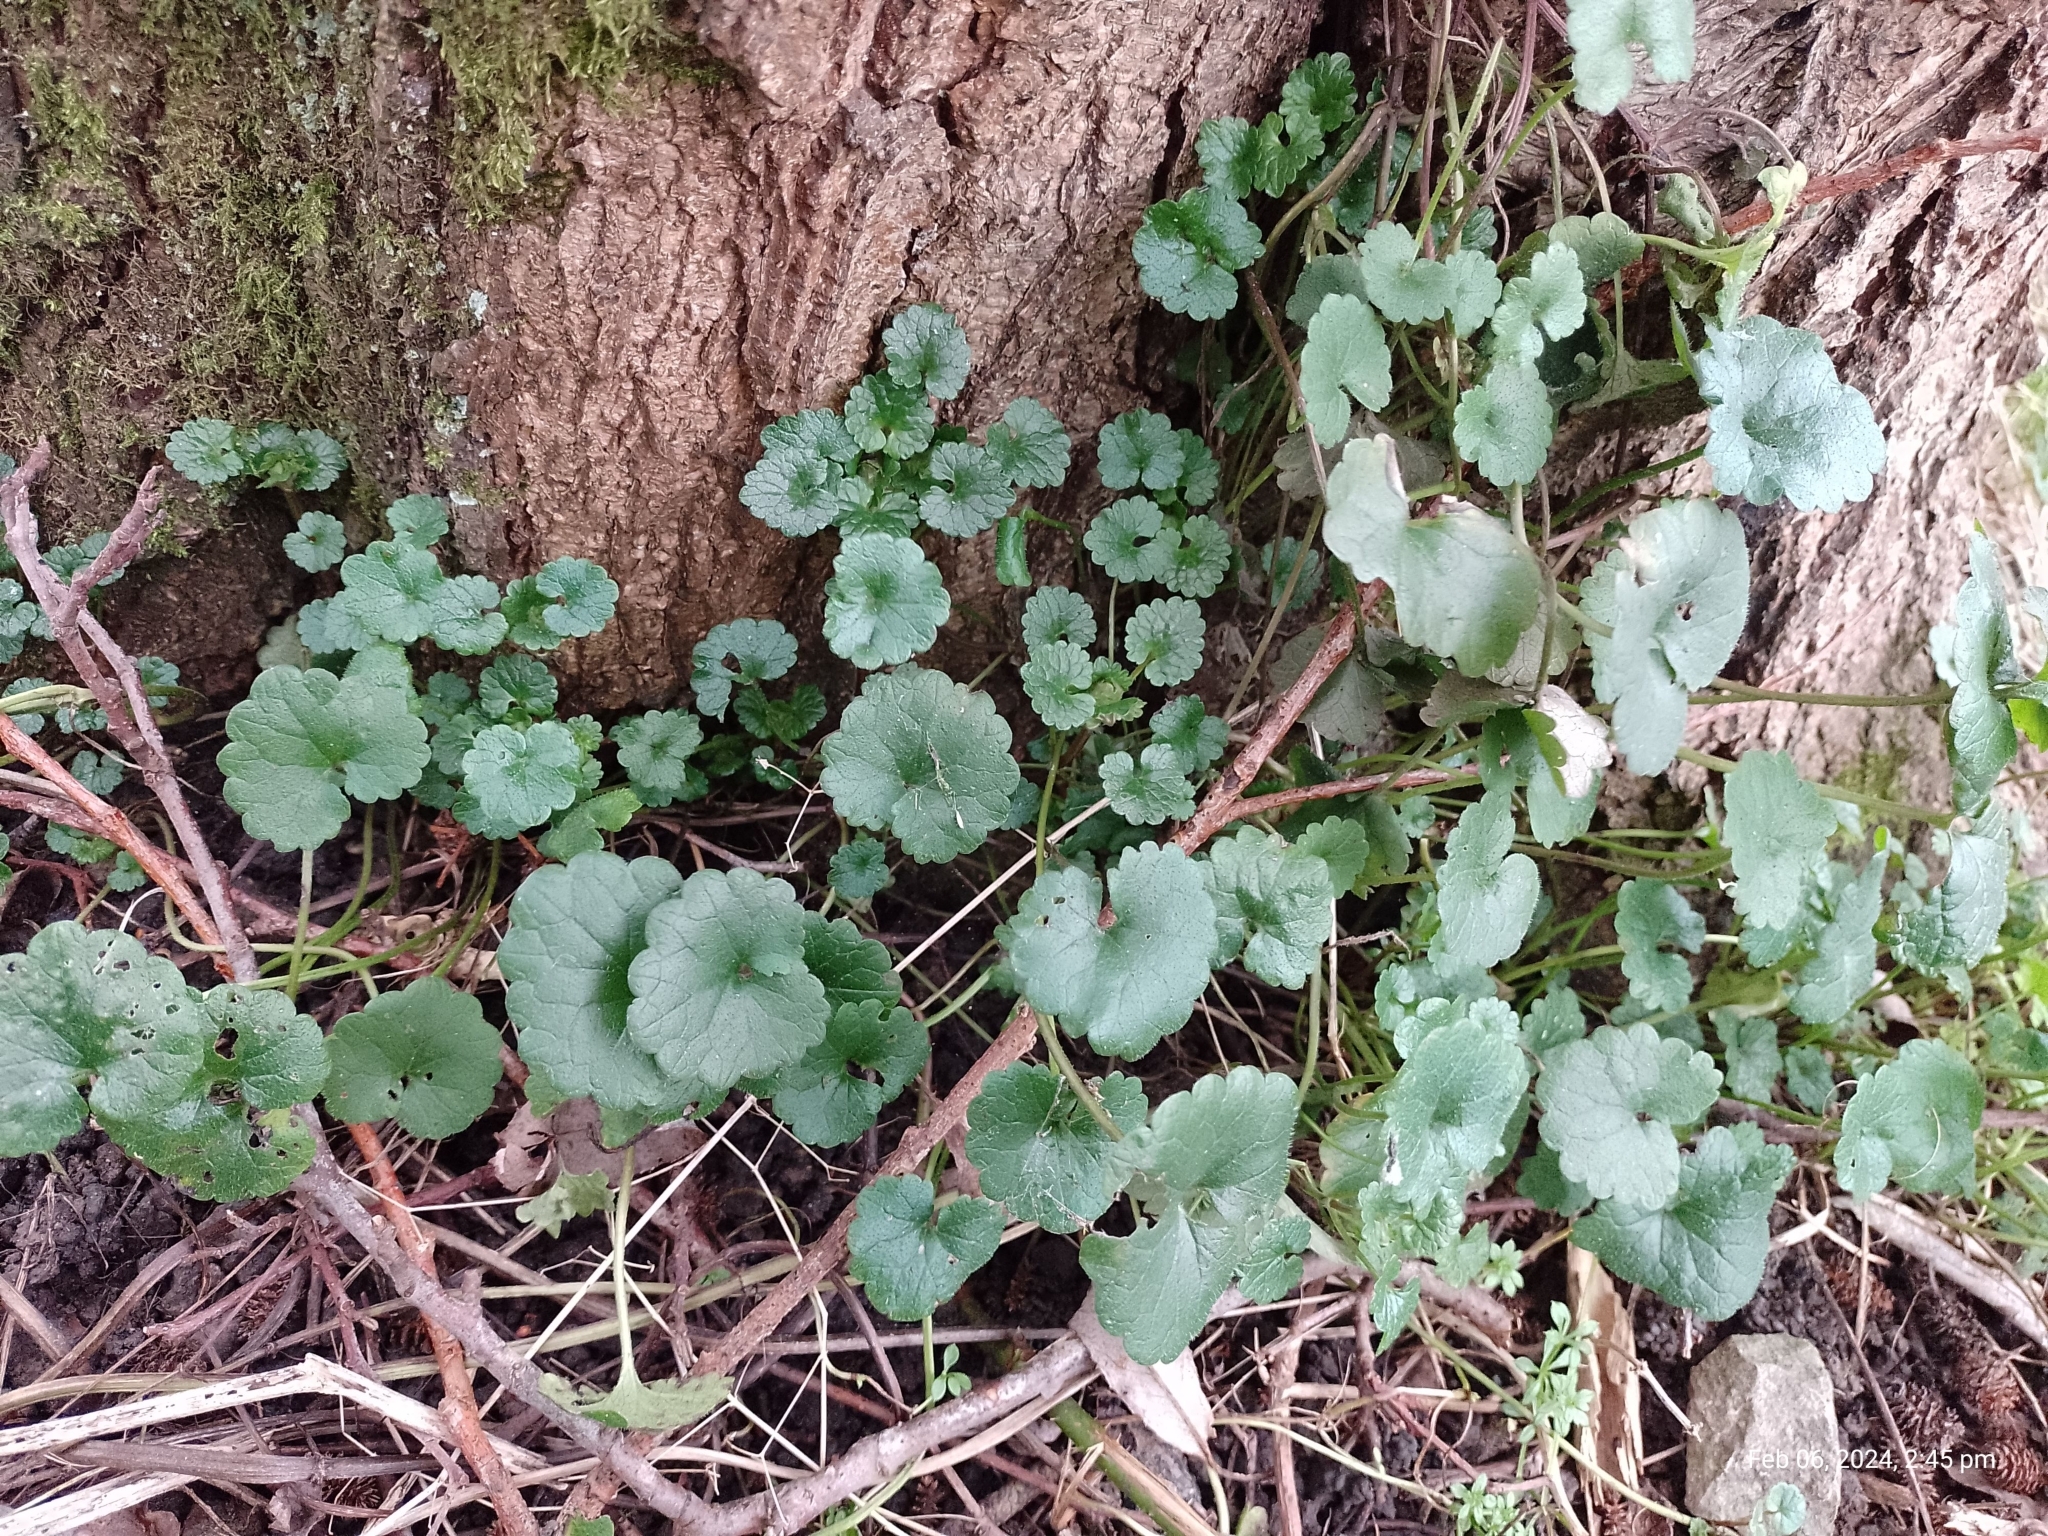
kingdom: Plantae
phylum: Tracheophyta
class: Magnoliopsida
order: Lamiales
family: Lamiaceae
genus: Glechoma
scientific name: Glechoma hederacea
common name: Ground ivy
